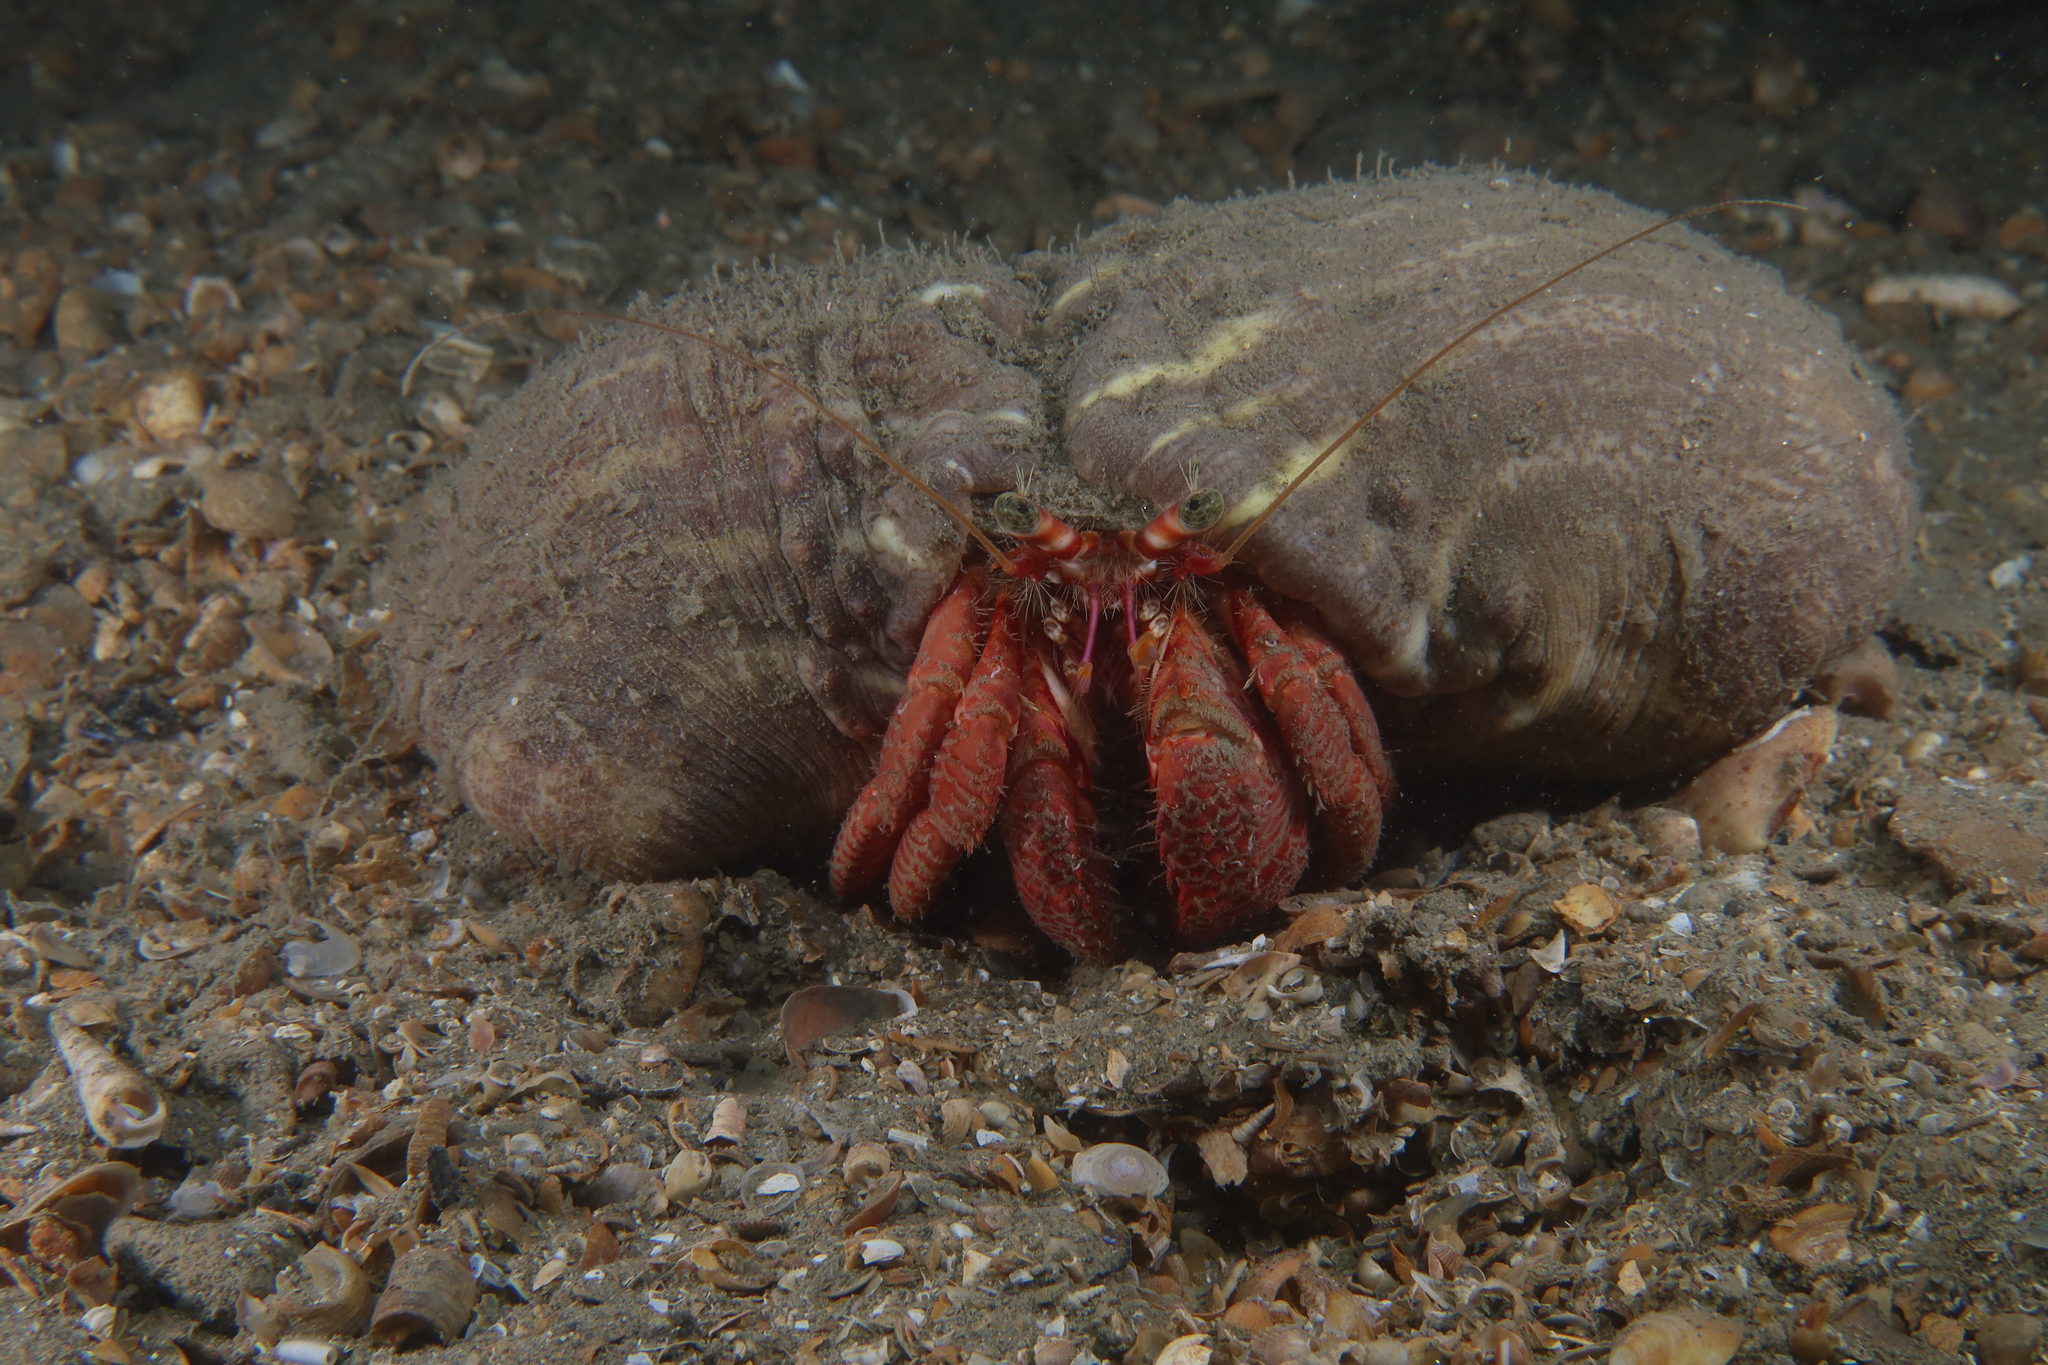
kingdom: Animalia
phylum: Arthropoda
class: Malacostraca
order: Decapoda
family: Diogenidae
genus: Dardanus
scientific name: Dardanus arrosor
